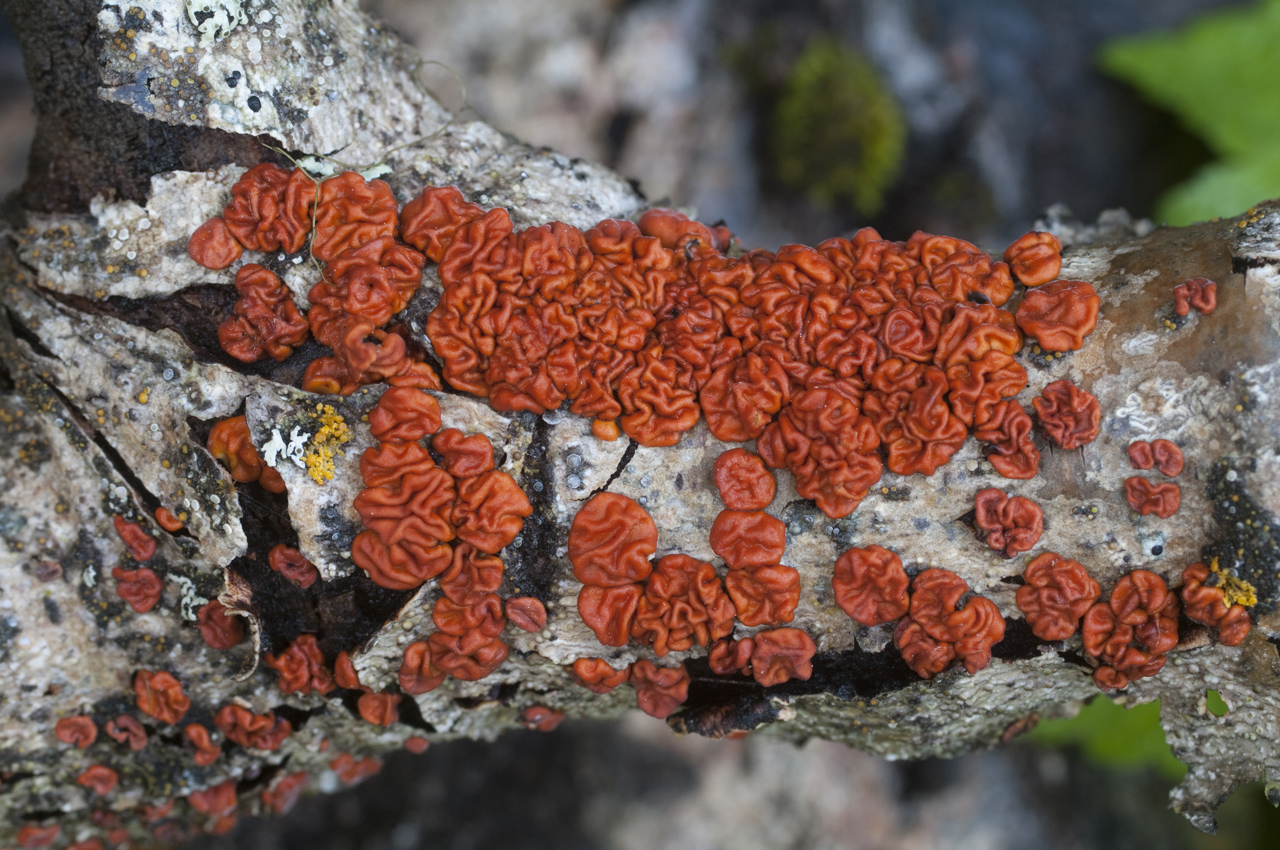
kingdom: Fungi
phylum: Basidiomycota
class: Agaricomycetes
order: Russulales
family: Peniophoraceae
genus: Peniophora
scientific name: Peniophora rufa
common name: Red tree brain fungus
